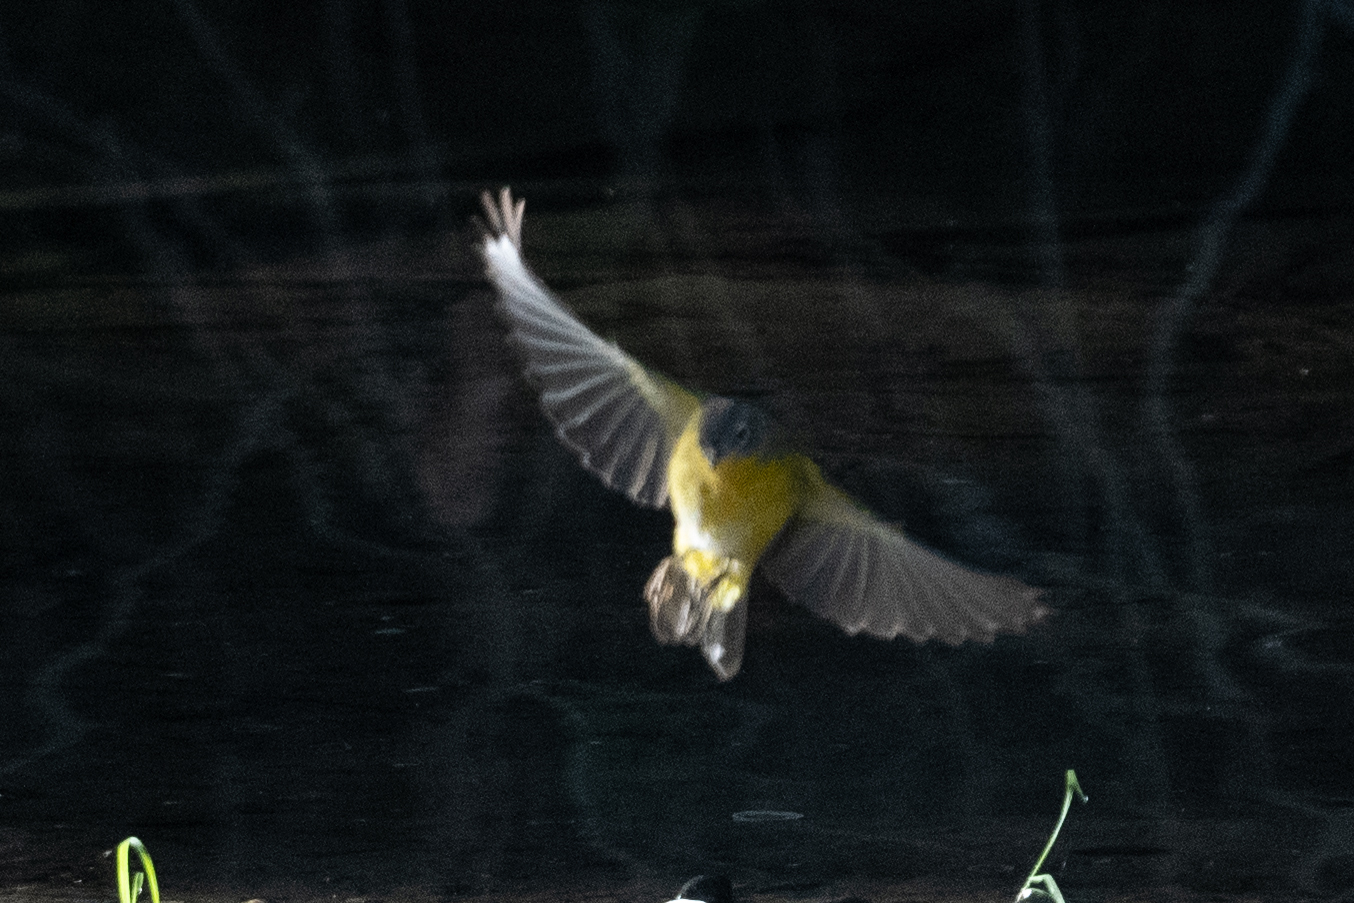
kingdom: Animalia
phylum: Chordata
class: Aves
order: Passeriformes
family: Parulidae
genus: Leiothlypis
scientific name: Leiothlypis ruficapilla
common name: Nashville warbler
